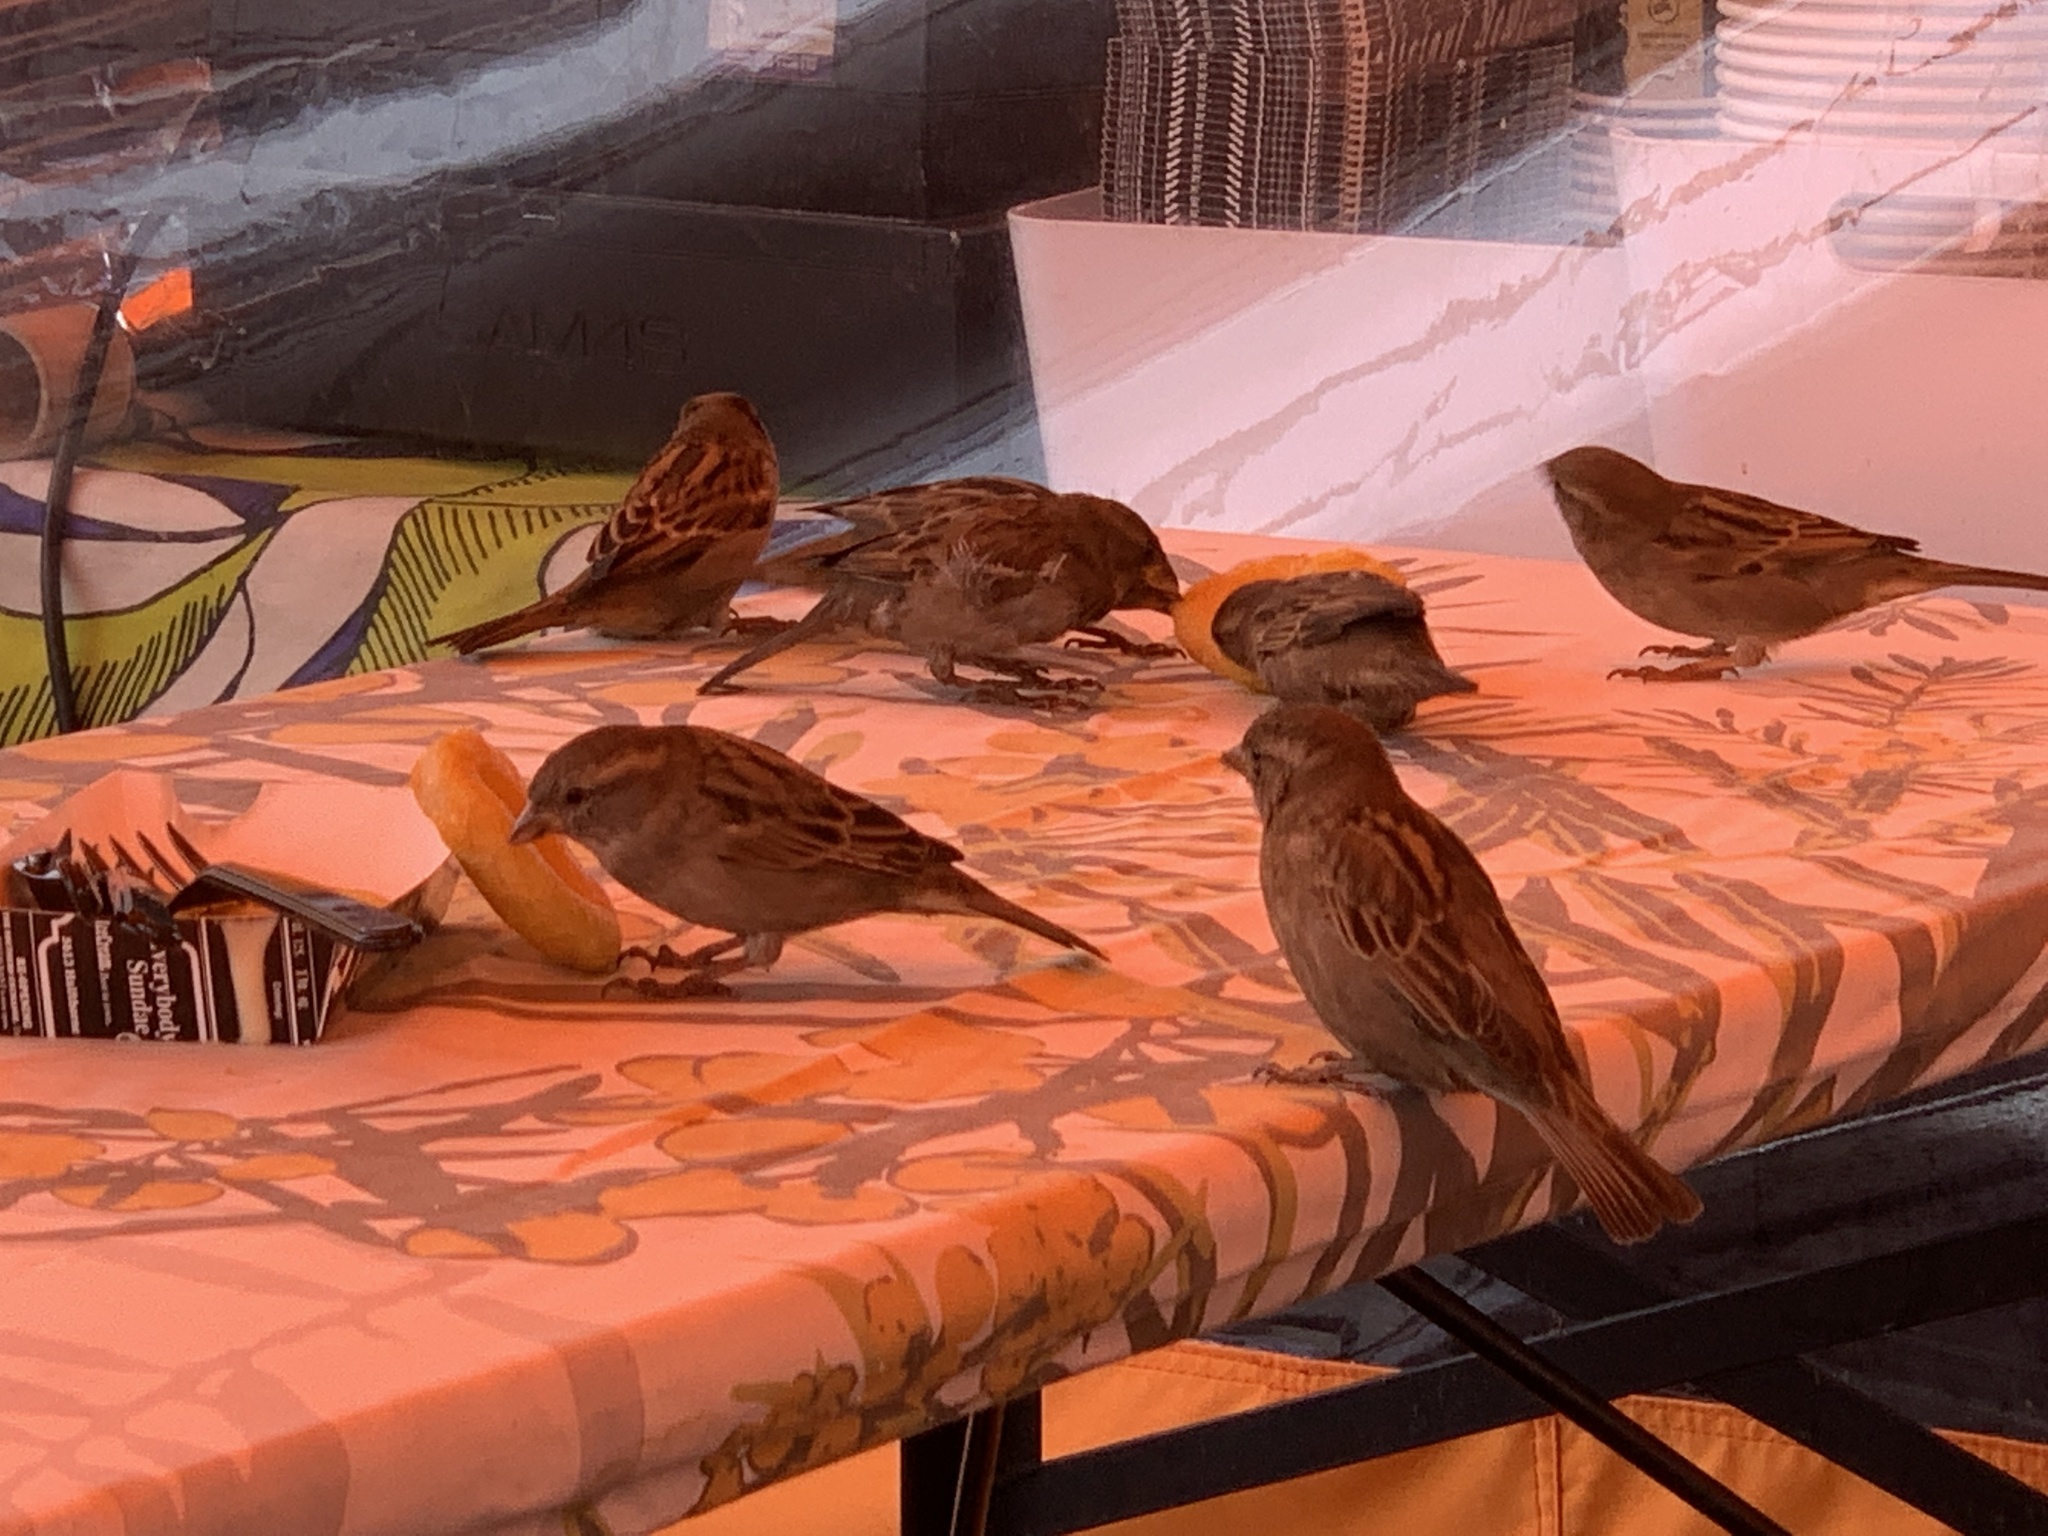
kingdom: Animalia
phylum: Chordata
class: Aves
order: Passeriformes
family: Passeridae
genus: Passer
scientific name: Passer domesticus
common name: House sparrow
